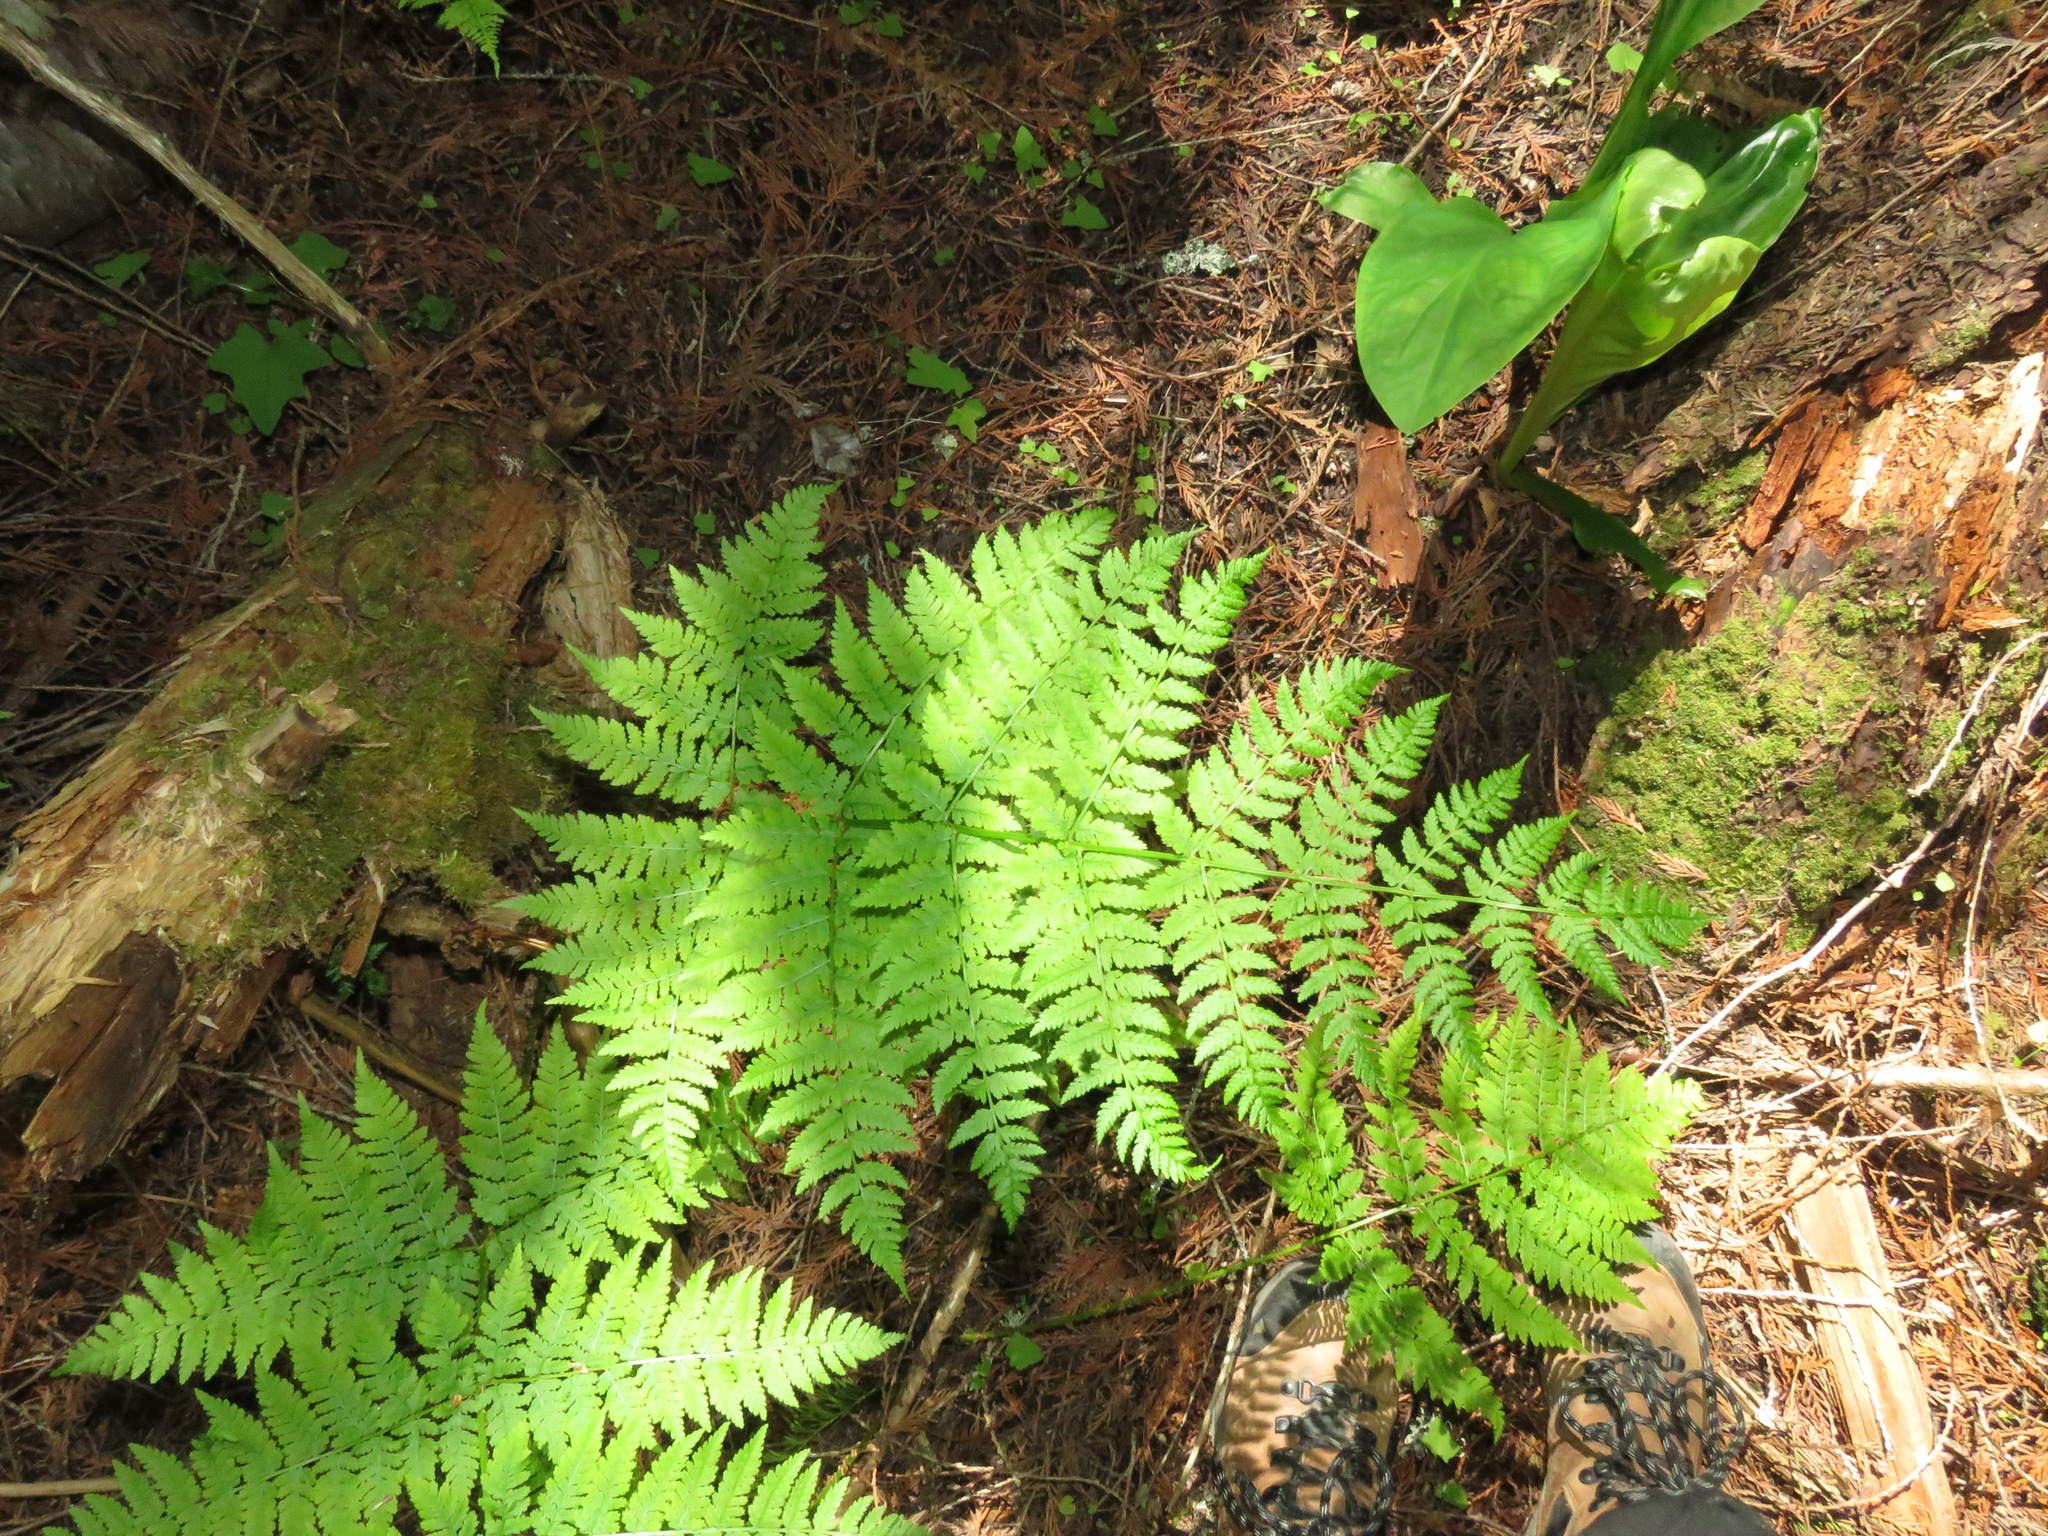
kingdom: Plantae
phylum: Tracheophyta
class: Polypodiopsida
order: Polypodiales
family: Dryopteridaceae
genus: Dryopteris
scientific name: Dryopteris expansa
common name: Northern buckler fern
